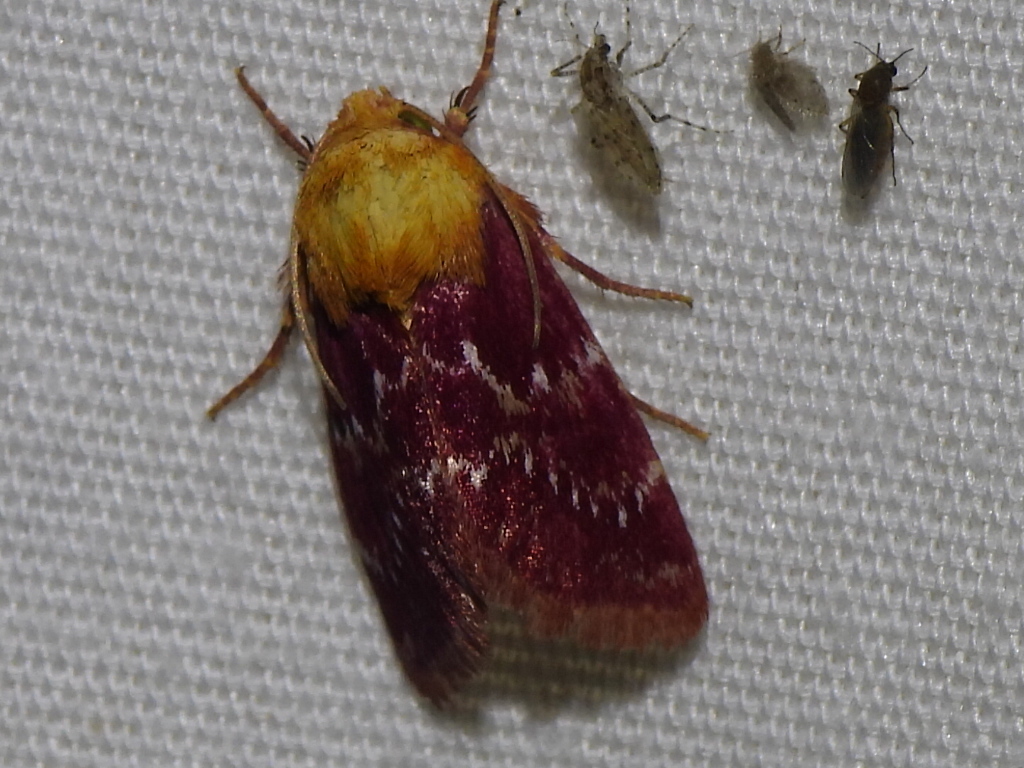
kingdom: Animalia
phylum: Arthropoda
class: Insecta
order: Lepidoptera
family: Noctuidae
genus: Schinia
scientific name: Schinia volupia
